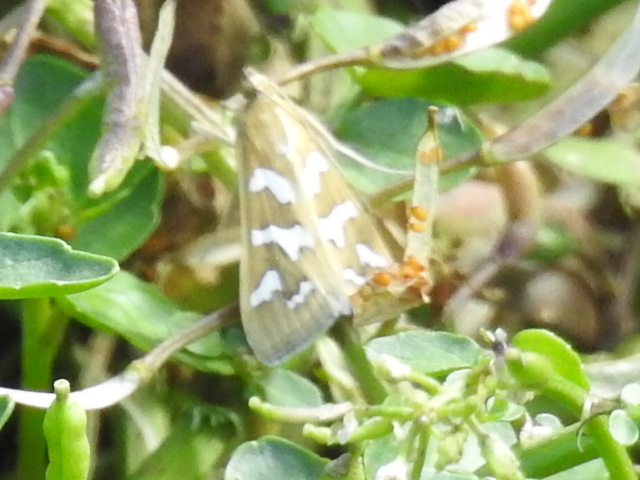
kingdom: Animalia
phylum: Arthropoda
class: Insecta
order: Lepidoptera
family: Crambidae
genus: Diastictis
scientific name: Diastictis fracturalis
